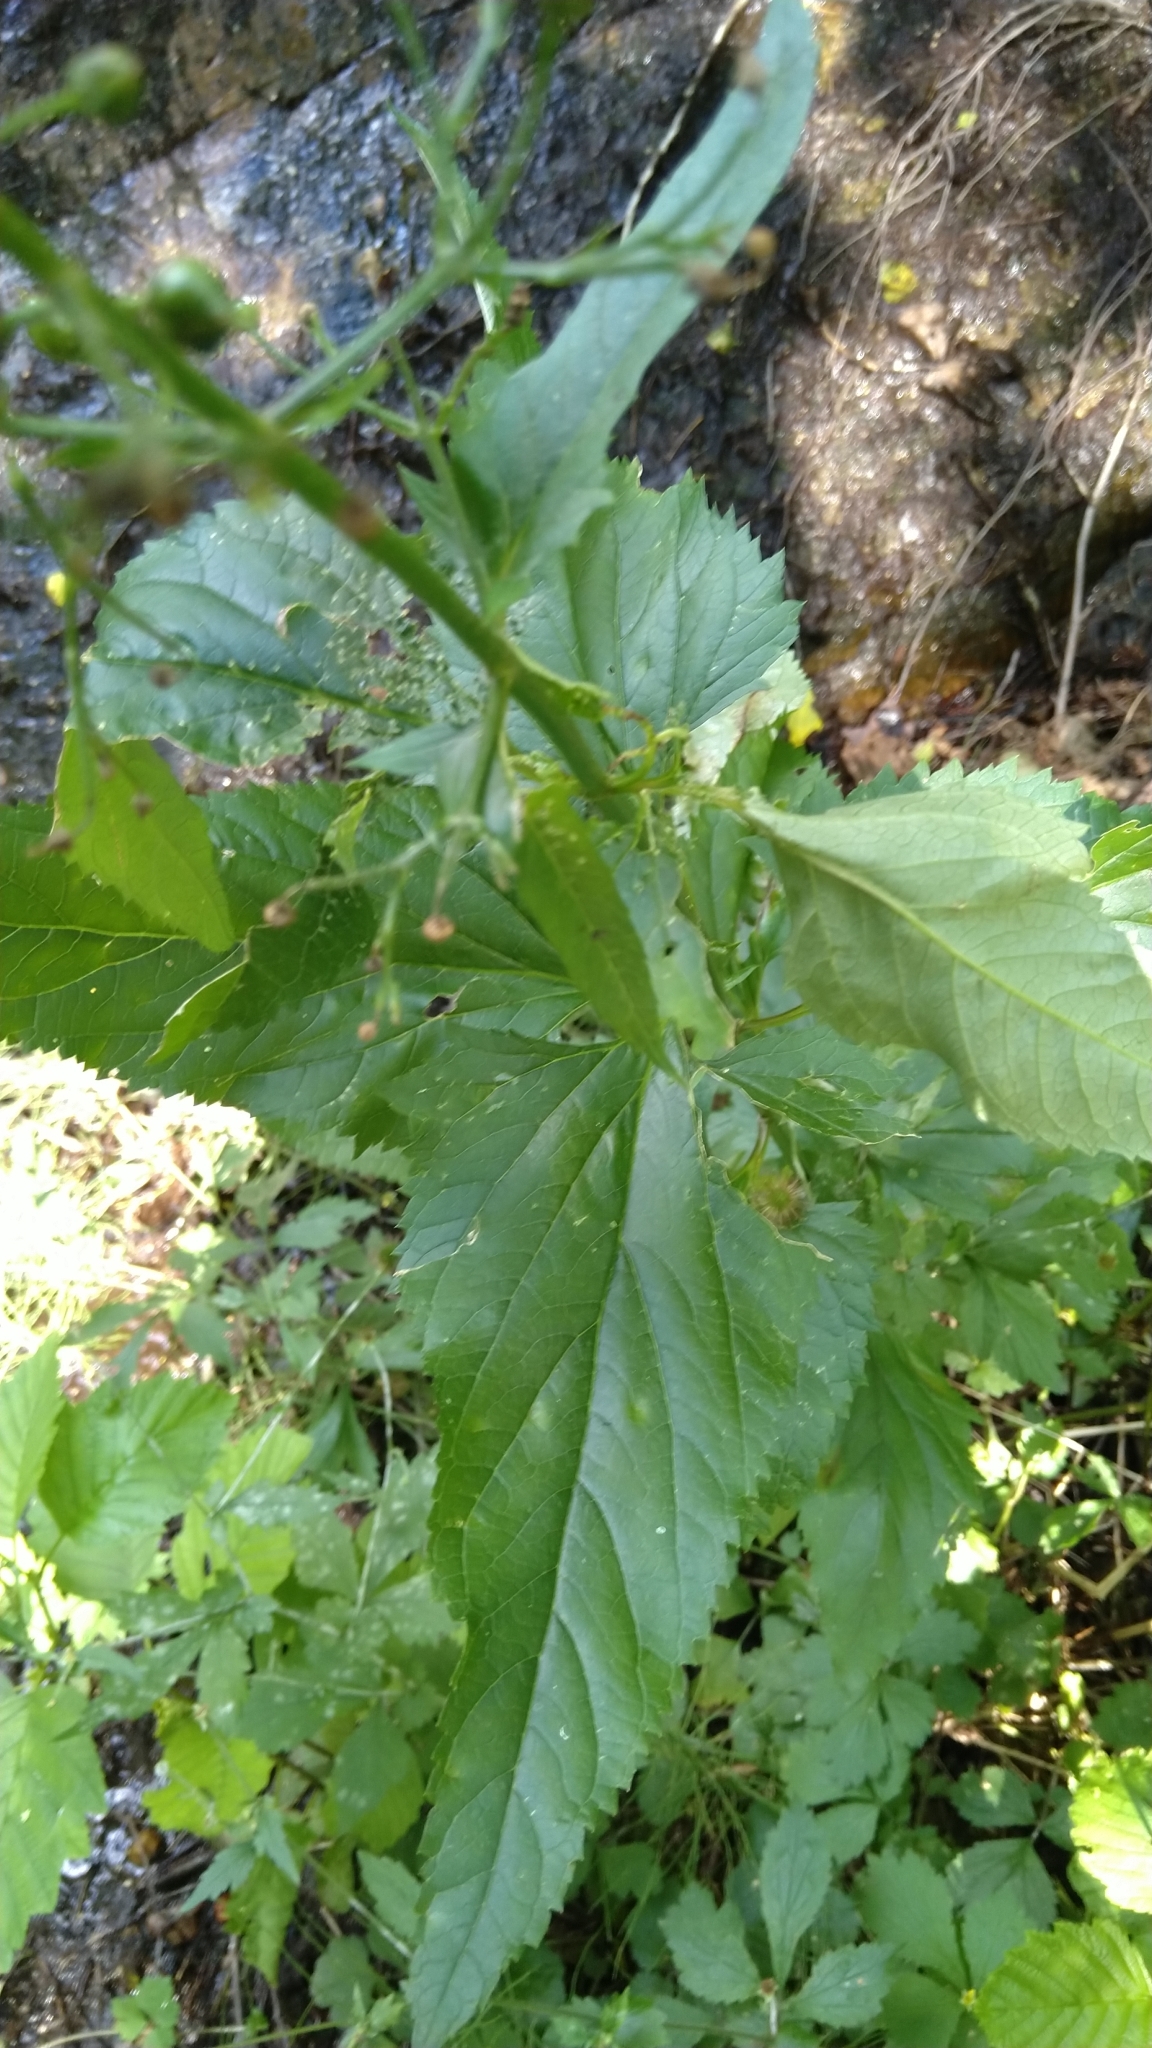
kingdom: Plantae
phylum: Tracheophyta
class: Magnoliopsida
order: Lamiales
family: Scrophulariaceae
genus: Scrophularia
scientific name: Scrophularia nodosa
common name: Common figwort
